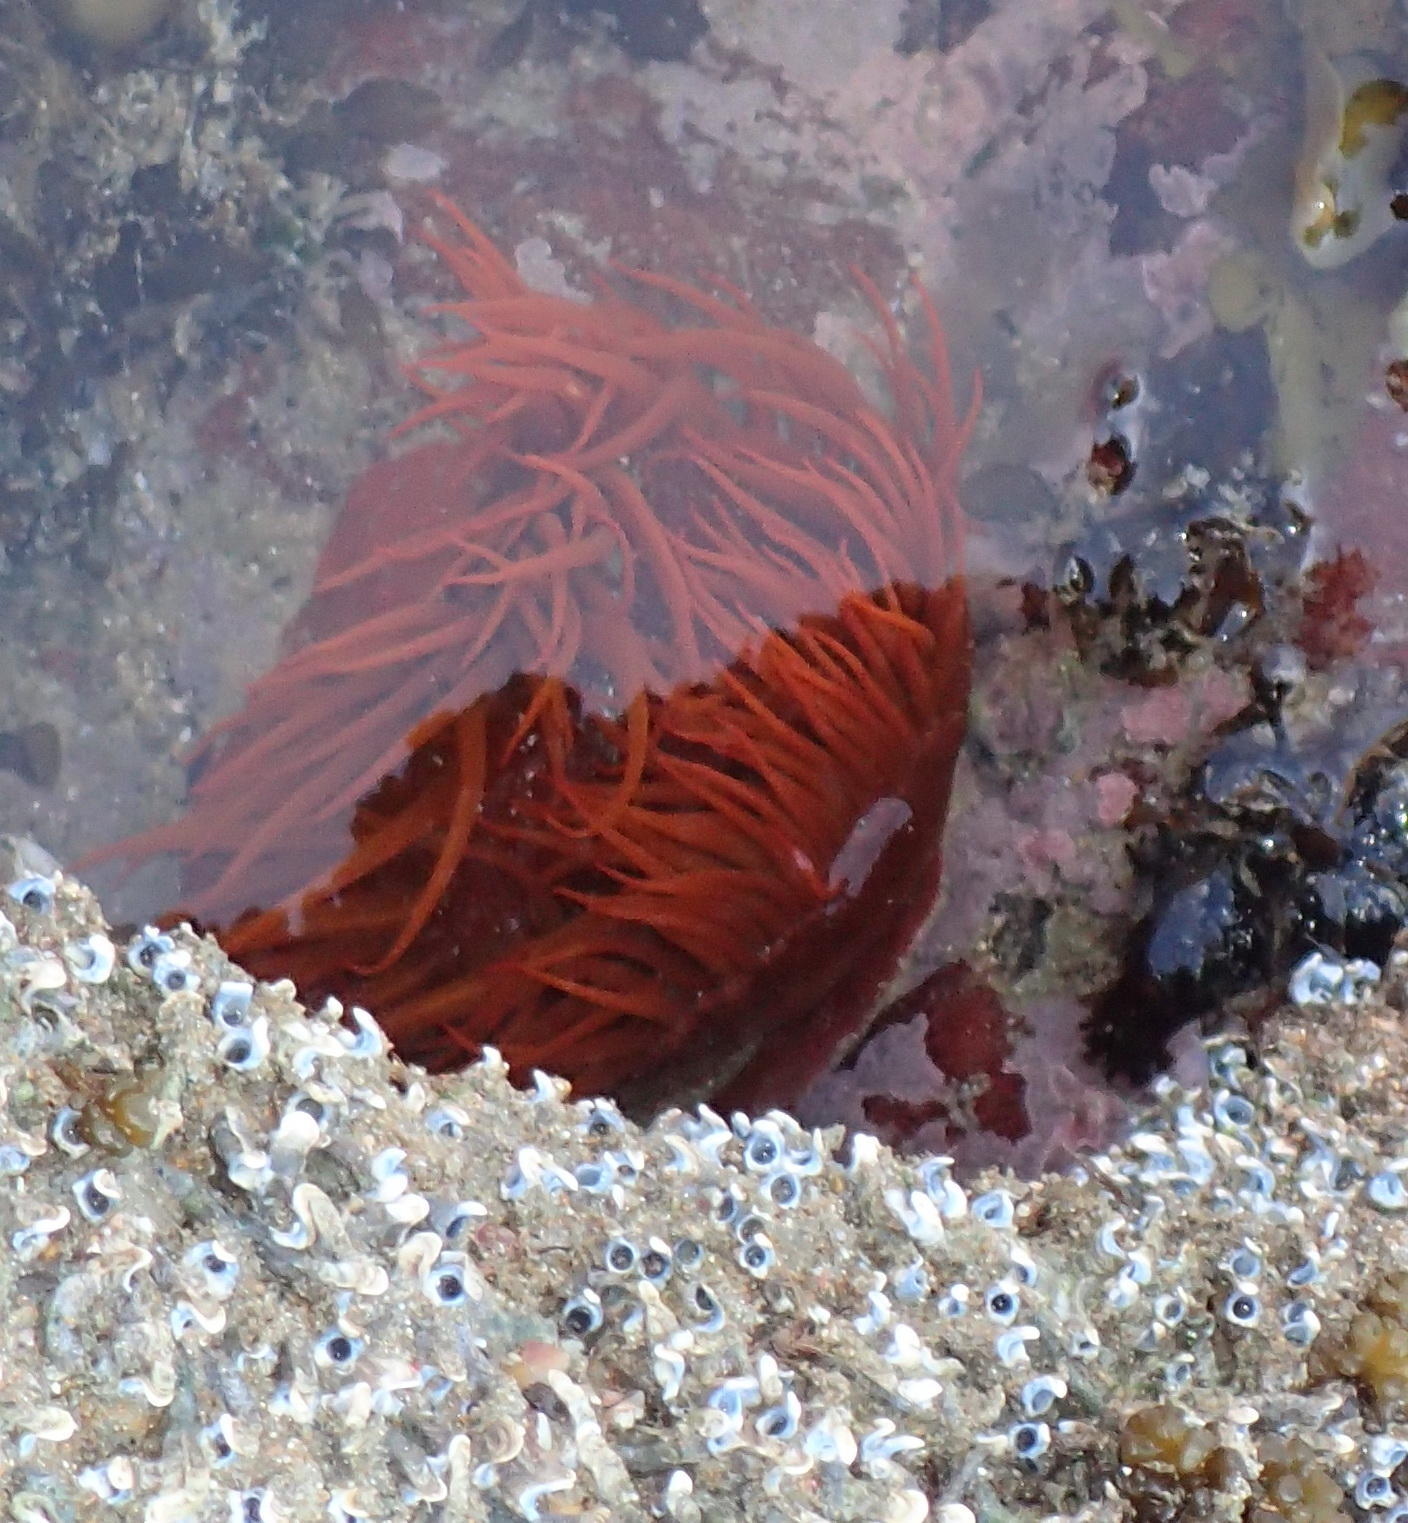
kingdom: Animalia
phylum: Cnidaria
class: Anthozoa
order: Actiniaria
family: Actiniidae
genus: Pseudactinia
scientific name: Pseudactinia flagellifera
